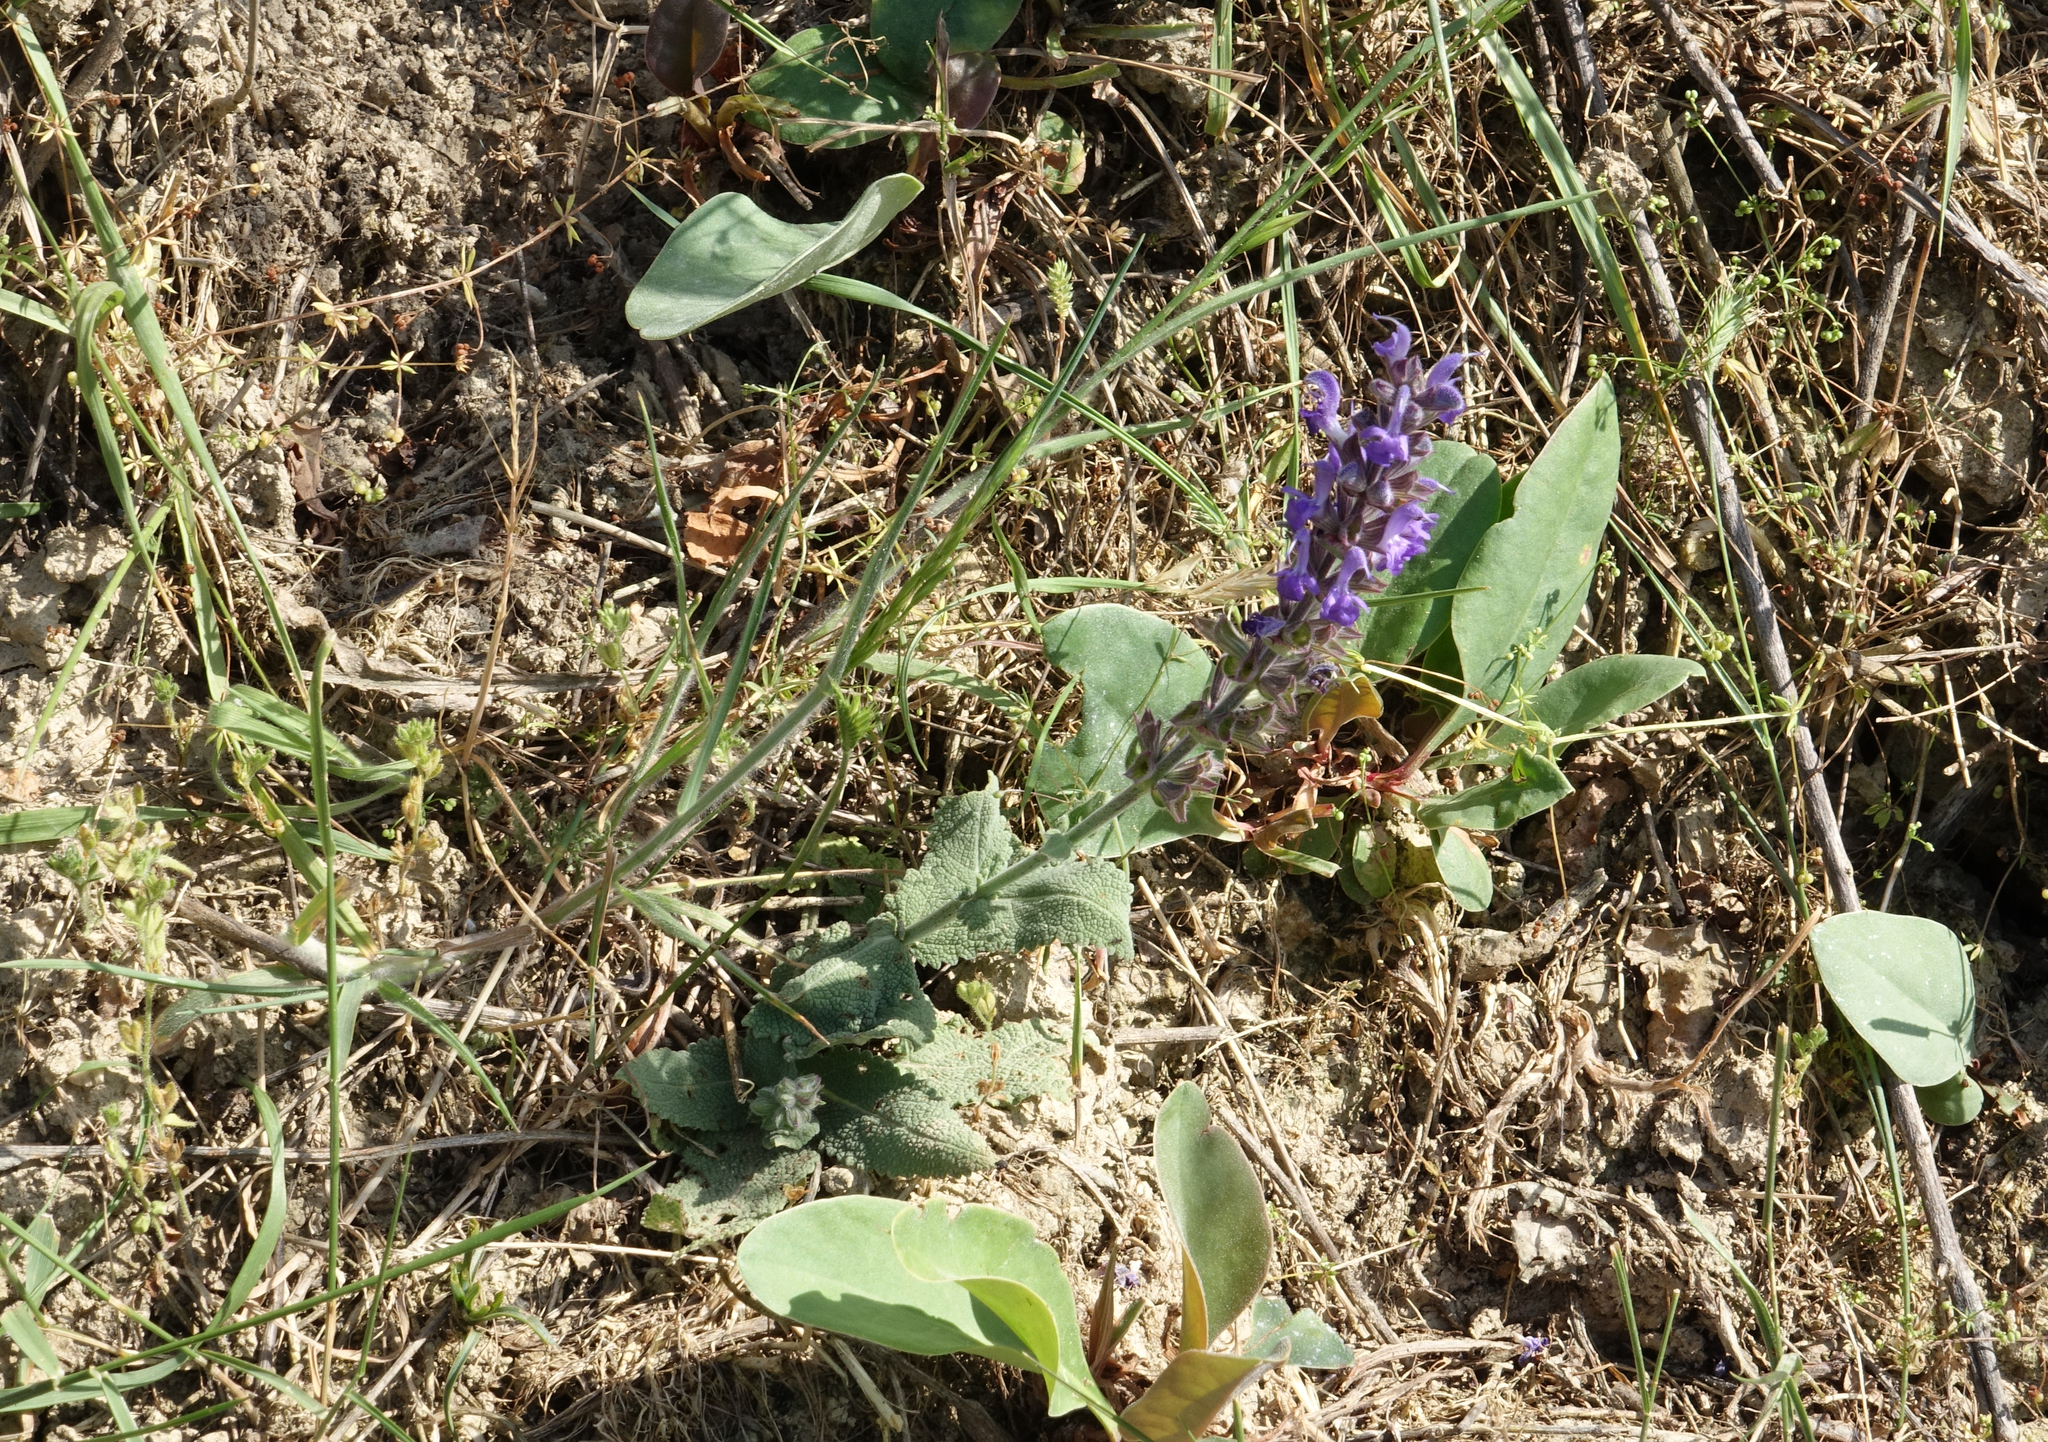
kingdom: Plantae
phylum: Tracheophyta
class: Magnoliopsida
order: Lamiales
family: Lamiaceae
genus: Salvia
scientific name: Salvia nemorosa
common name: Balkan clary
